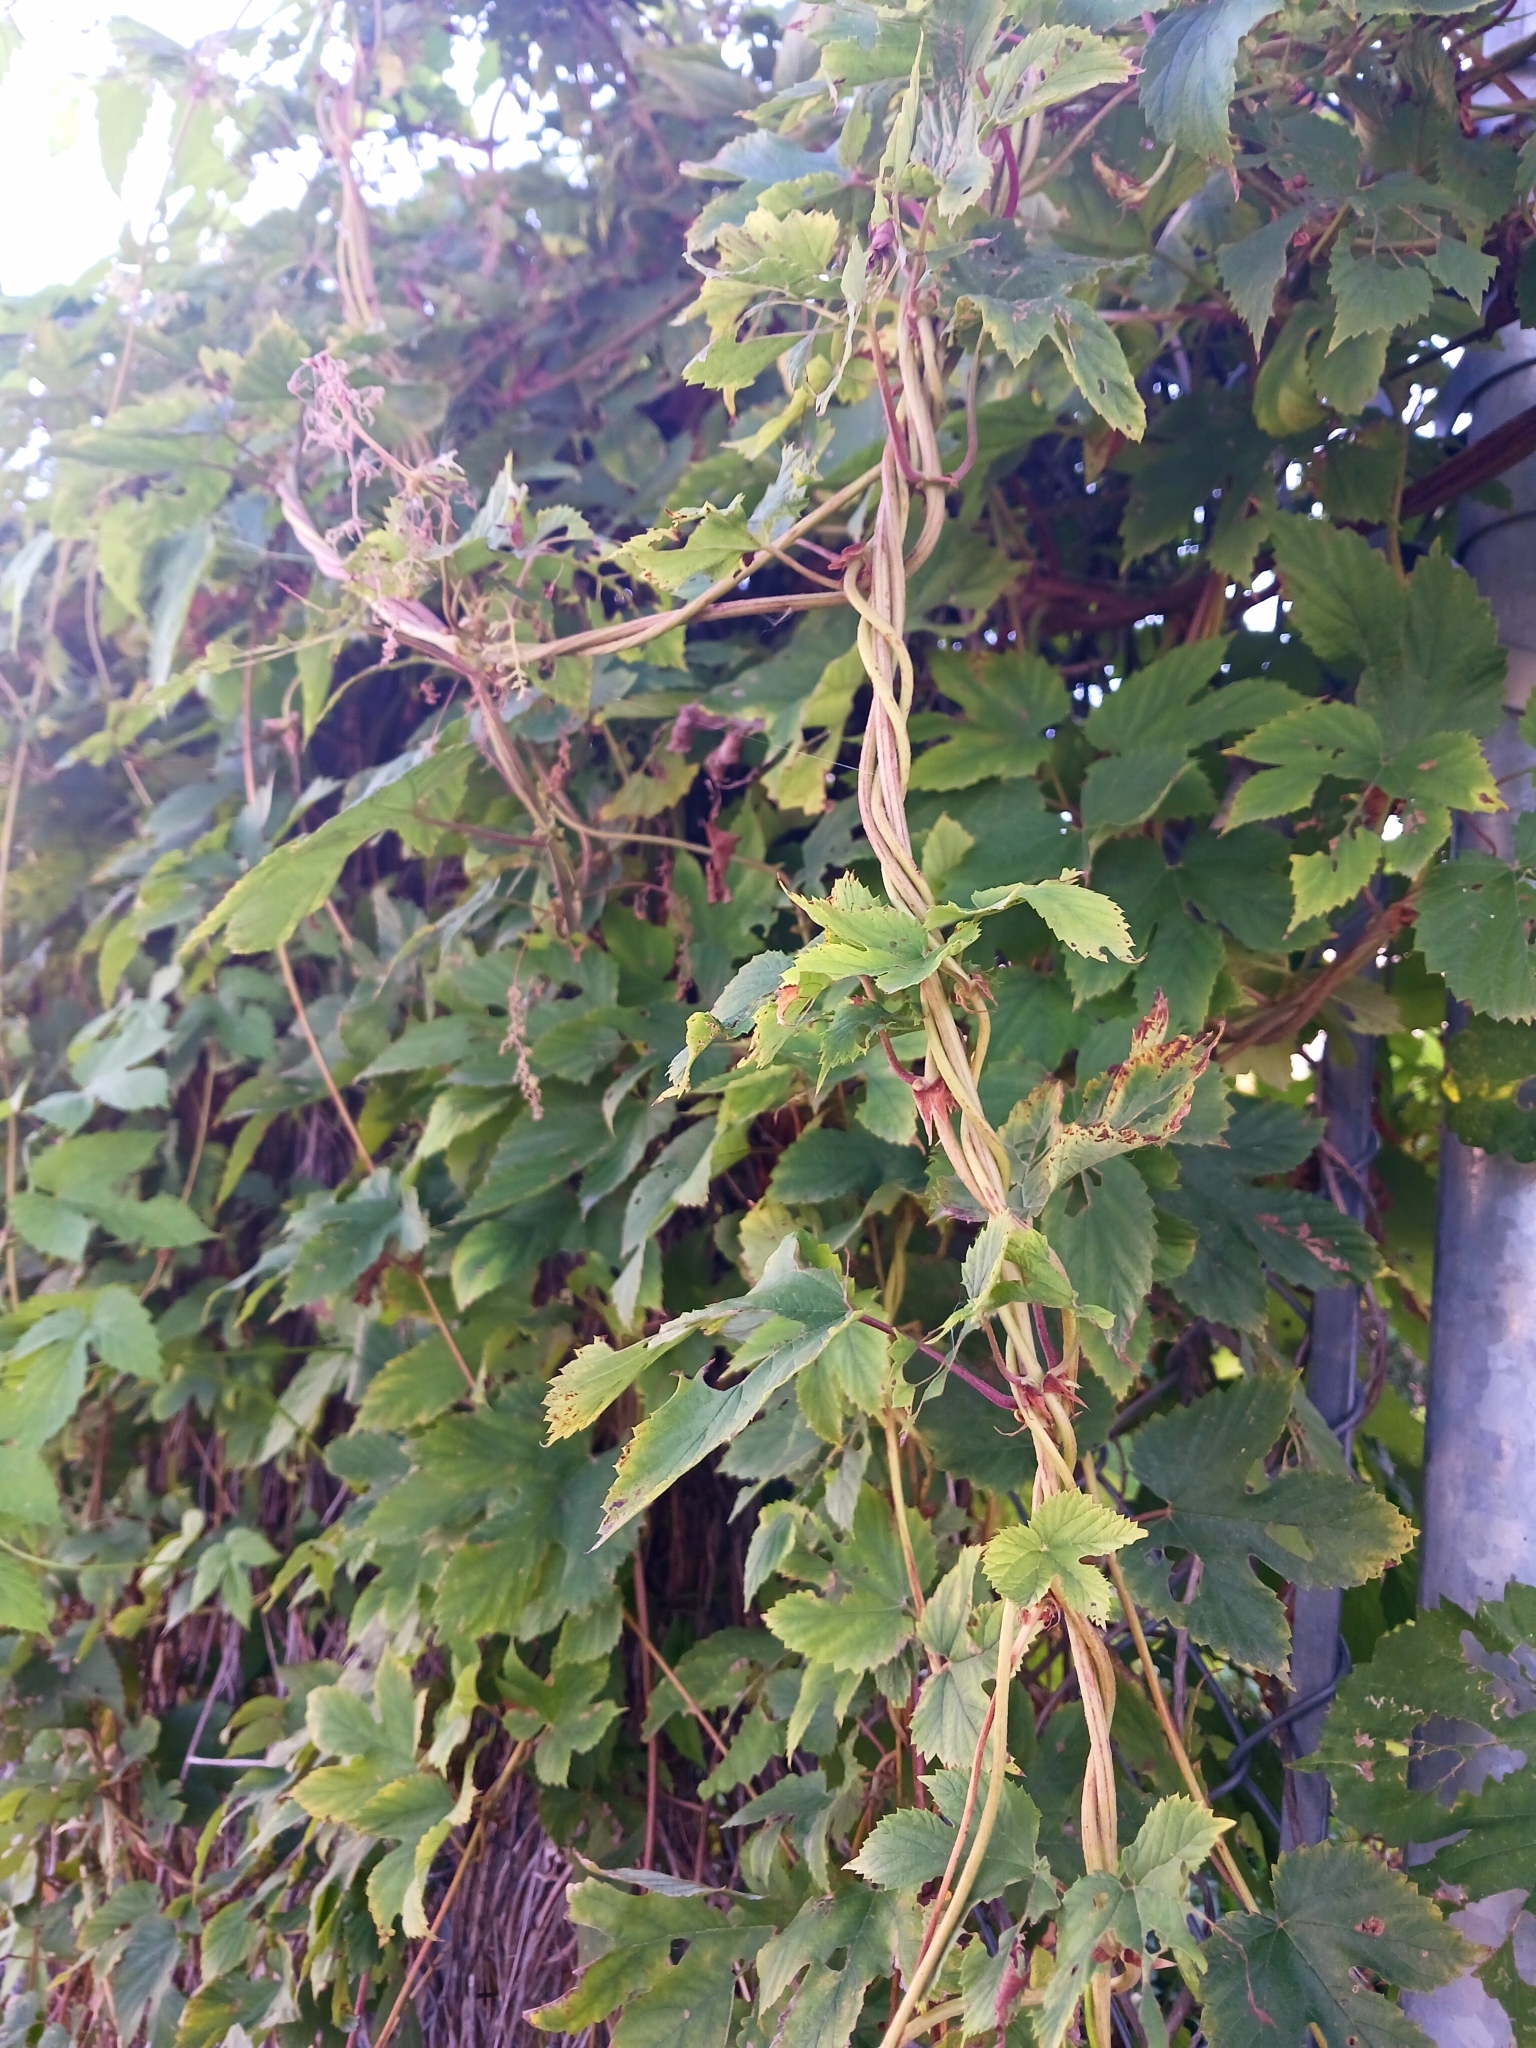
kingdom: Plantae
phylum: Tracheophyta
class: Magnoliopsida
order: Rosales
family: Cannabaceae
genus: Humulus
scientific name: Humulus lupulus
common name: Hop
